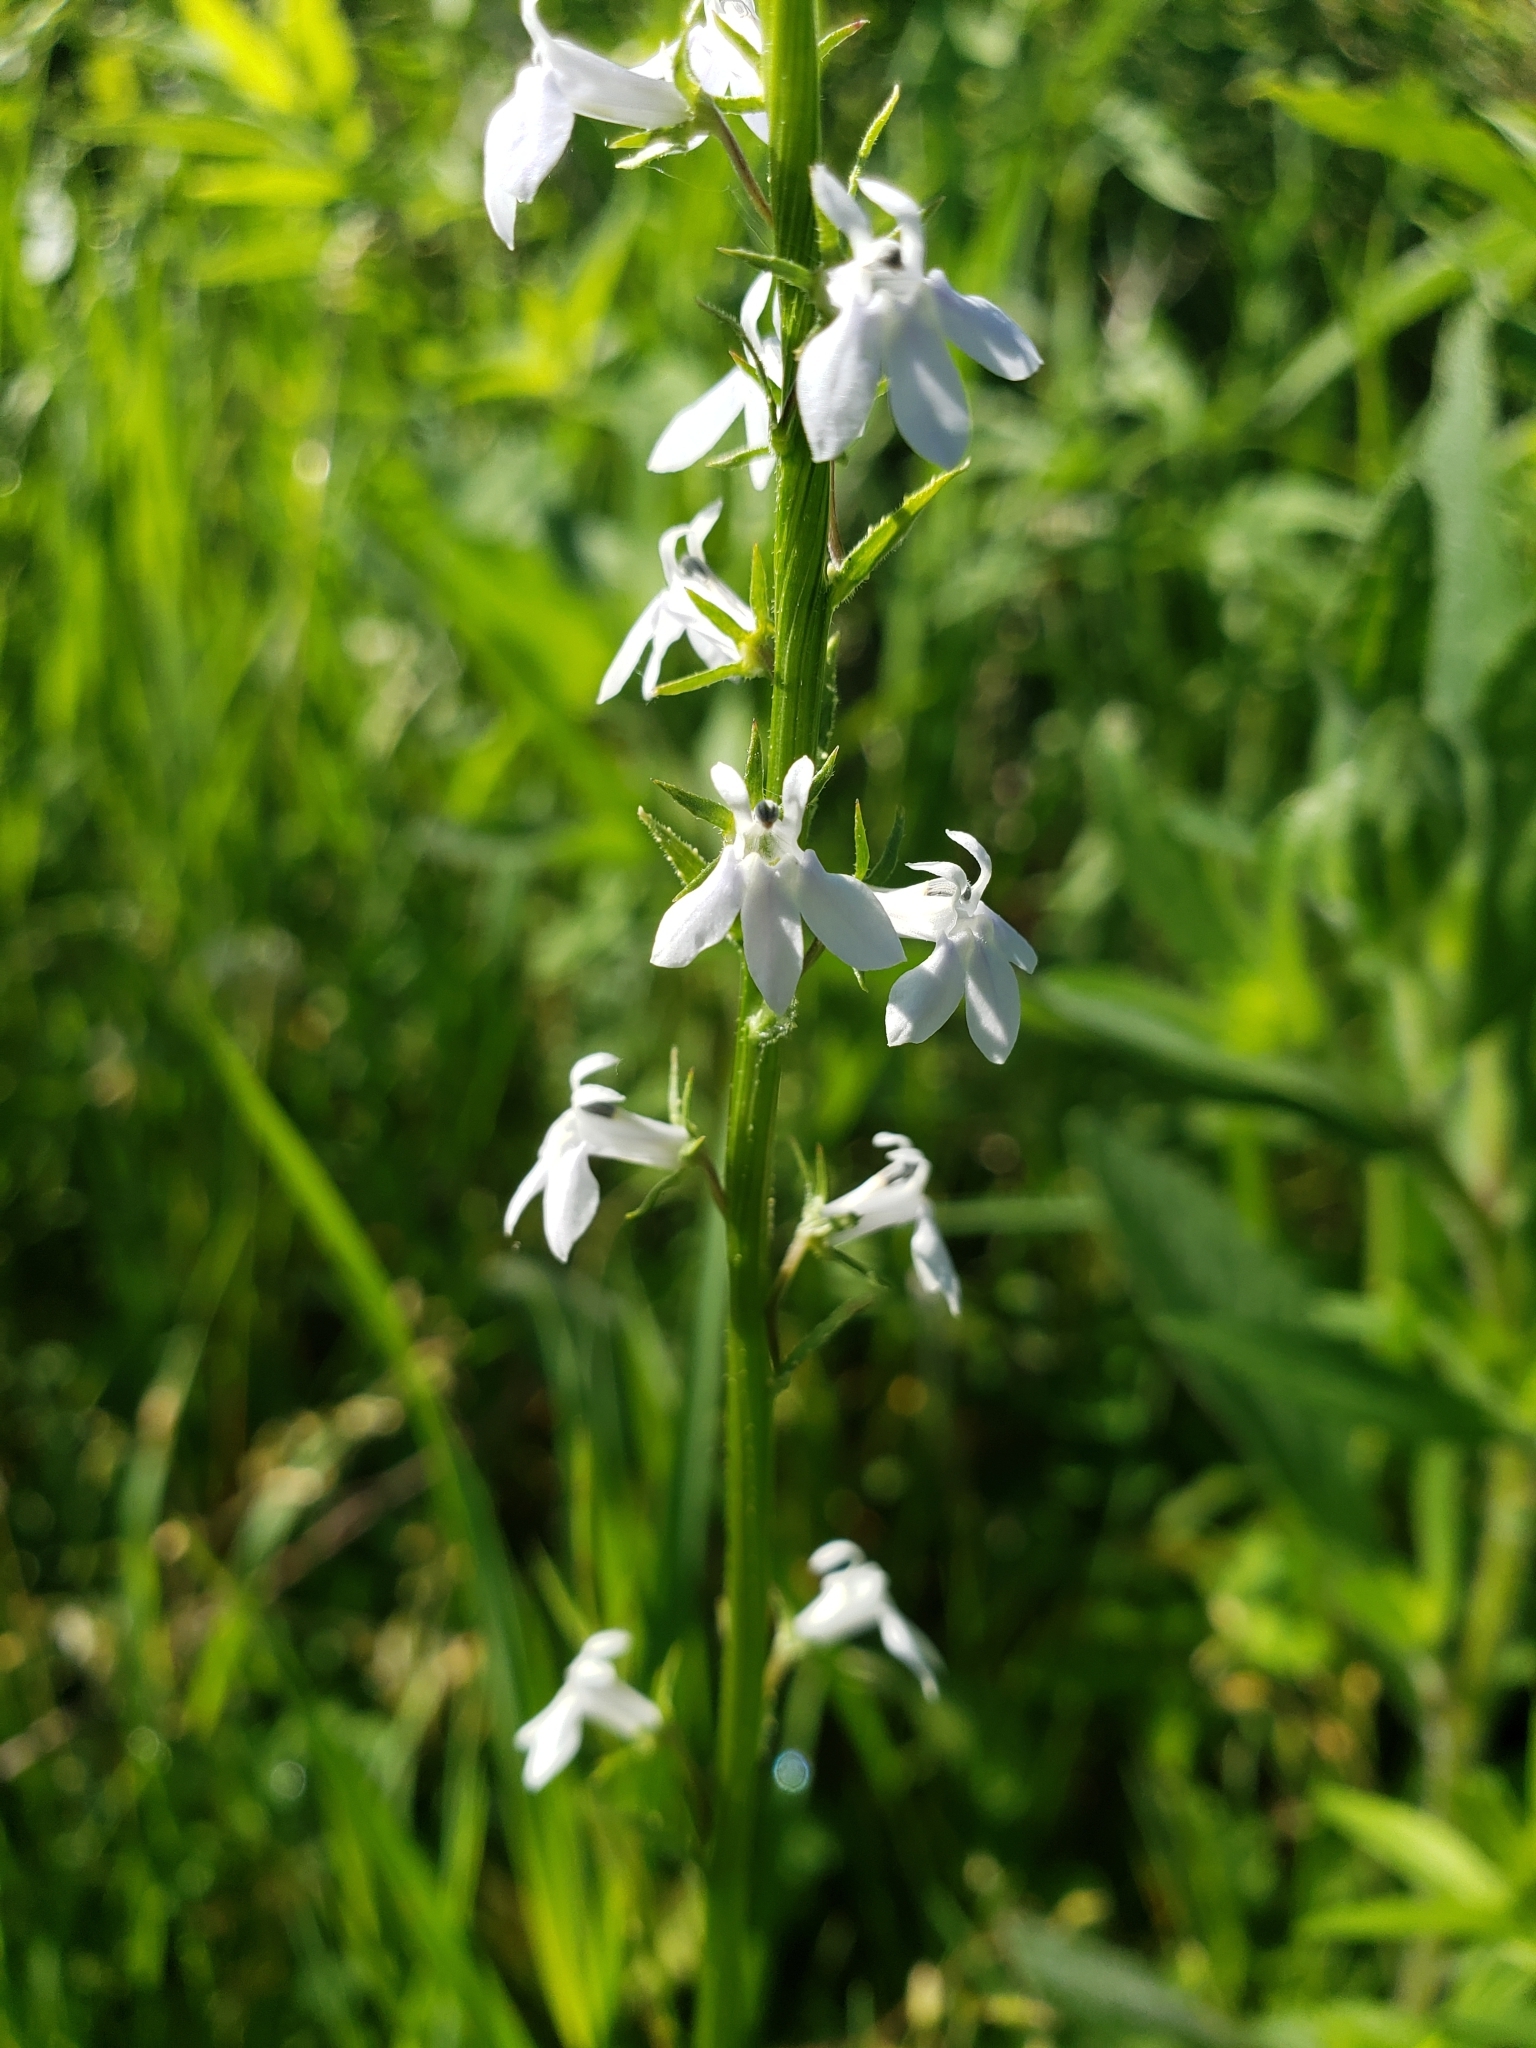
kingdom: Plantae
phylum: Tracheophyta
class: Magnoliopsida
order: Asterales
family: Campanulaceae
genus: Lobelia
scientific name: Lobelia spicata
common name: Pale-spike lobelia
